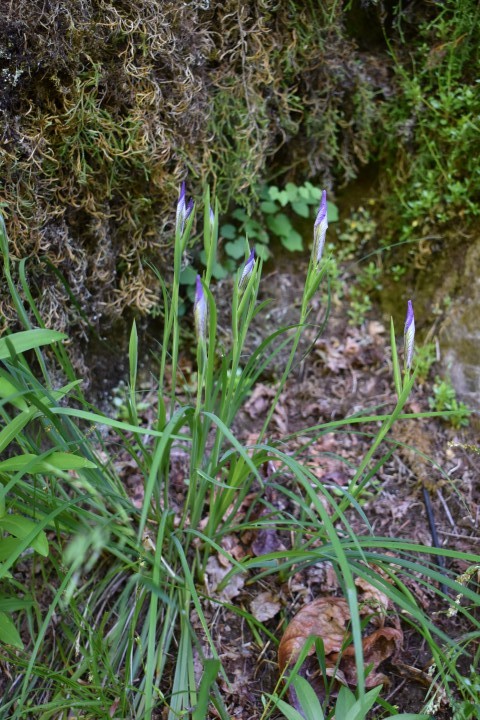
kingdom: Plantae
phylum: Tracheophyta
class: Liliopsida
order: Asparagales
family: Iridaceae
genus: Iris
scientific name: Iris tenax
